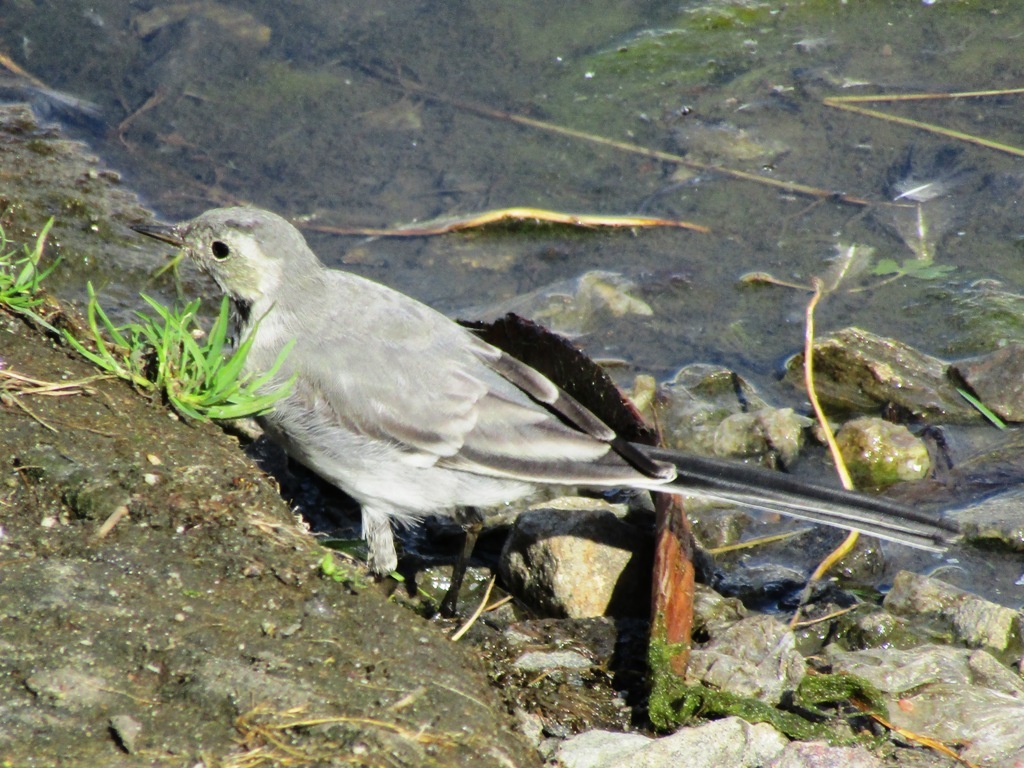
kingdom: Animalia
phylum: Chordata
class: Aves
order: Passeriformes
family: Motacillidae
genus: Motacilla
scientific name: Motacilla alba
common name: White wagtail
